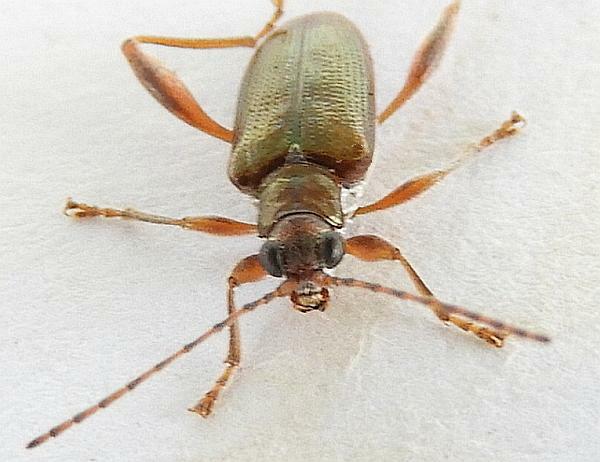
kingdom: Animalia
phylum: Arthropoda
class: Insecta
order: Coleoptera
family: Chrysomelidae
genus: Donacia
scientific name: Donacia cincticornis
